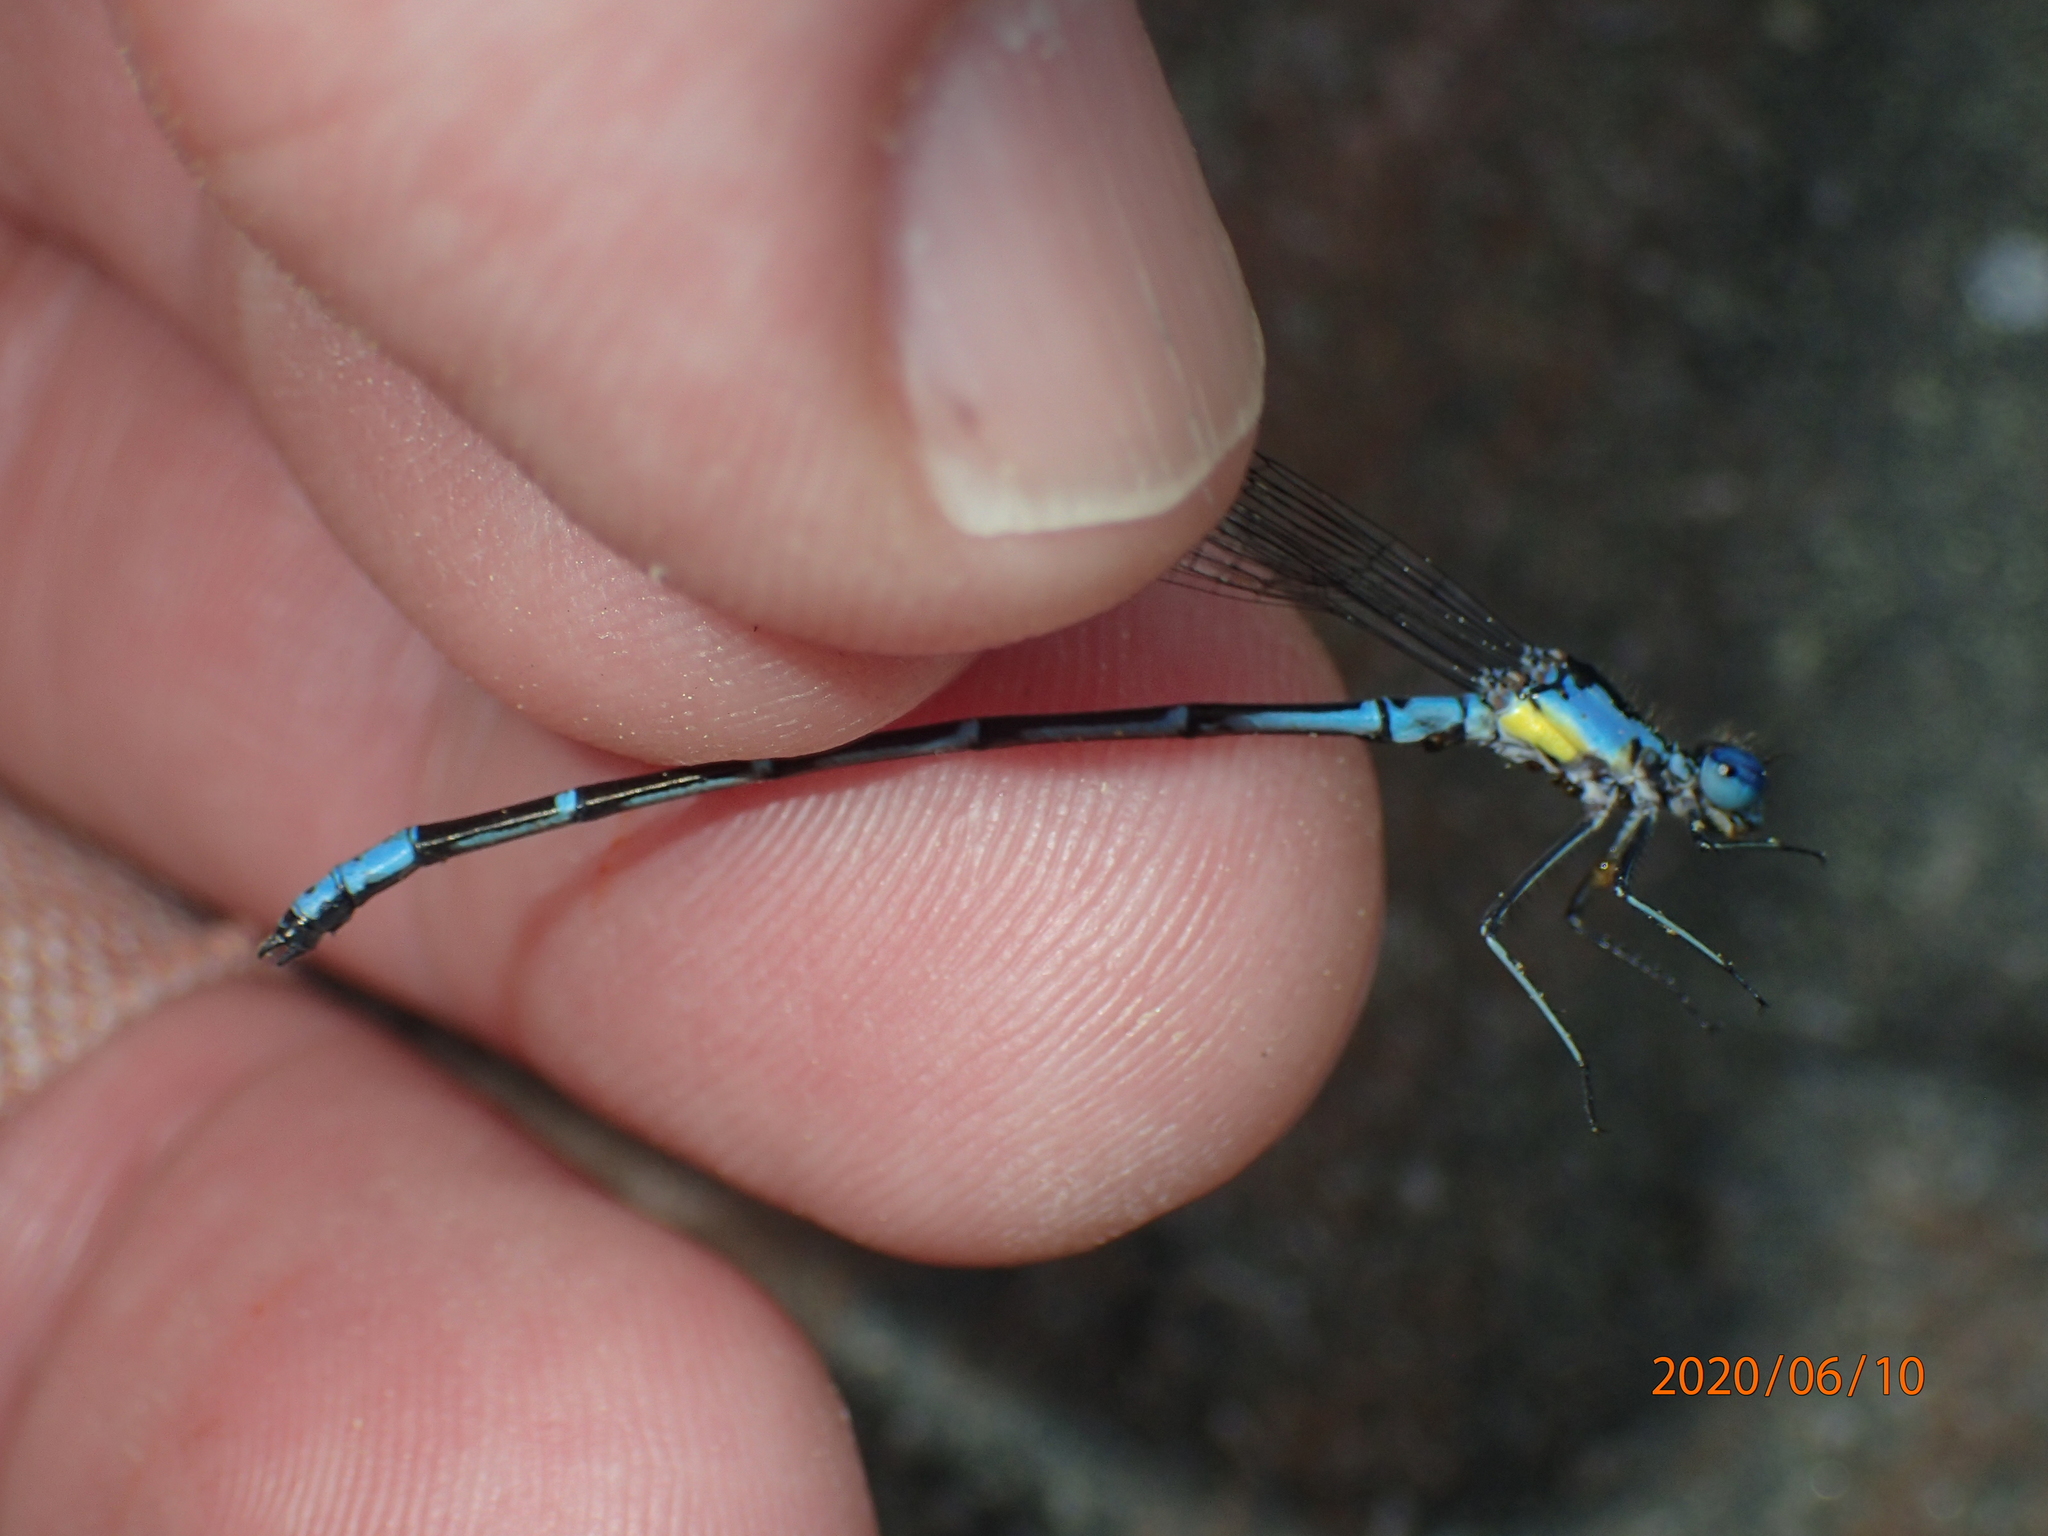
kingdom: Animalia
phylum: Arthropoda
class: Insecta
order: Odonata
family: Coenagrionidae
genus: Chromagrion
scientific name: Chromagrion conditum
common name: Aurora damsel
